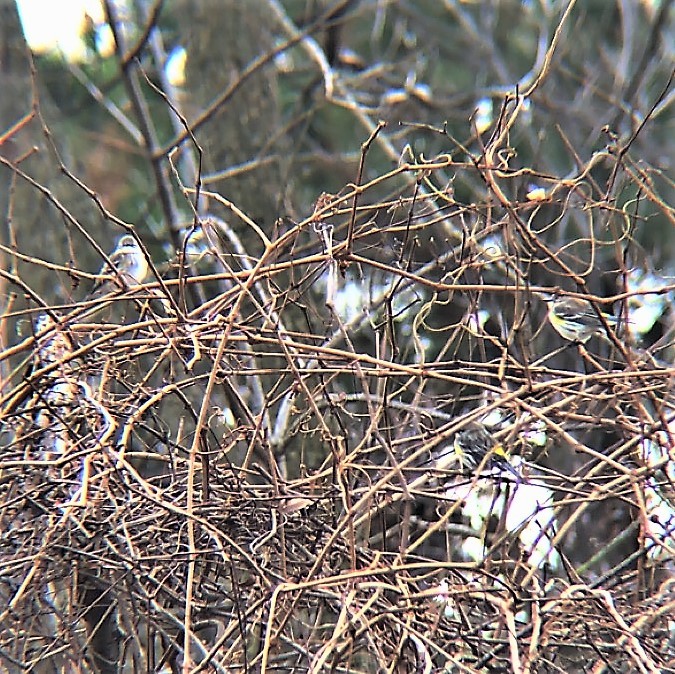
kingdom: Animalia
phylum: Chordata
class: Aves
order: Passeriformes
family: Parulidae
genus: Setophaga
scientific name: Setophaga coronata
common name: Myrtle warbler
